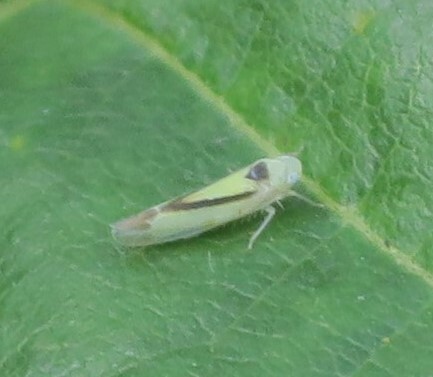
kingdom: Animalia
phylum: Arthropoda
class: Insecta
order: Hemiptera
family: Cicadellidae
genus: Edwardsiana
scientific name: Edwardsiana geometrica
